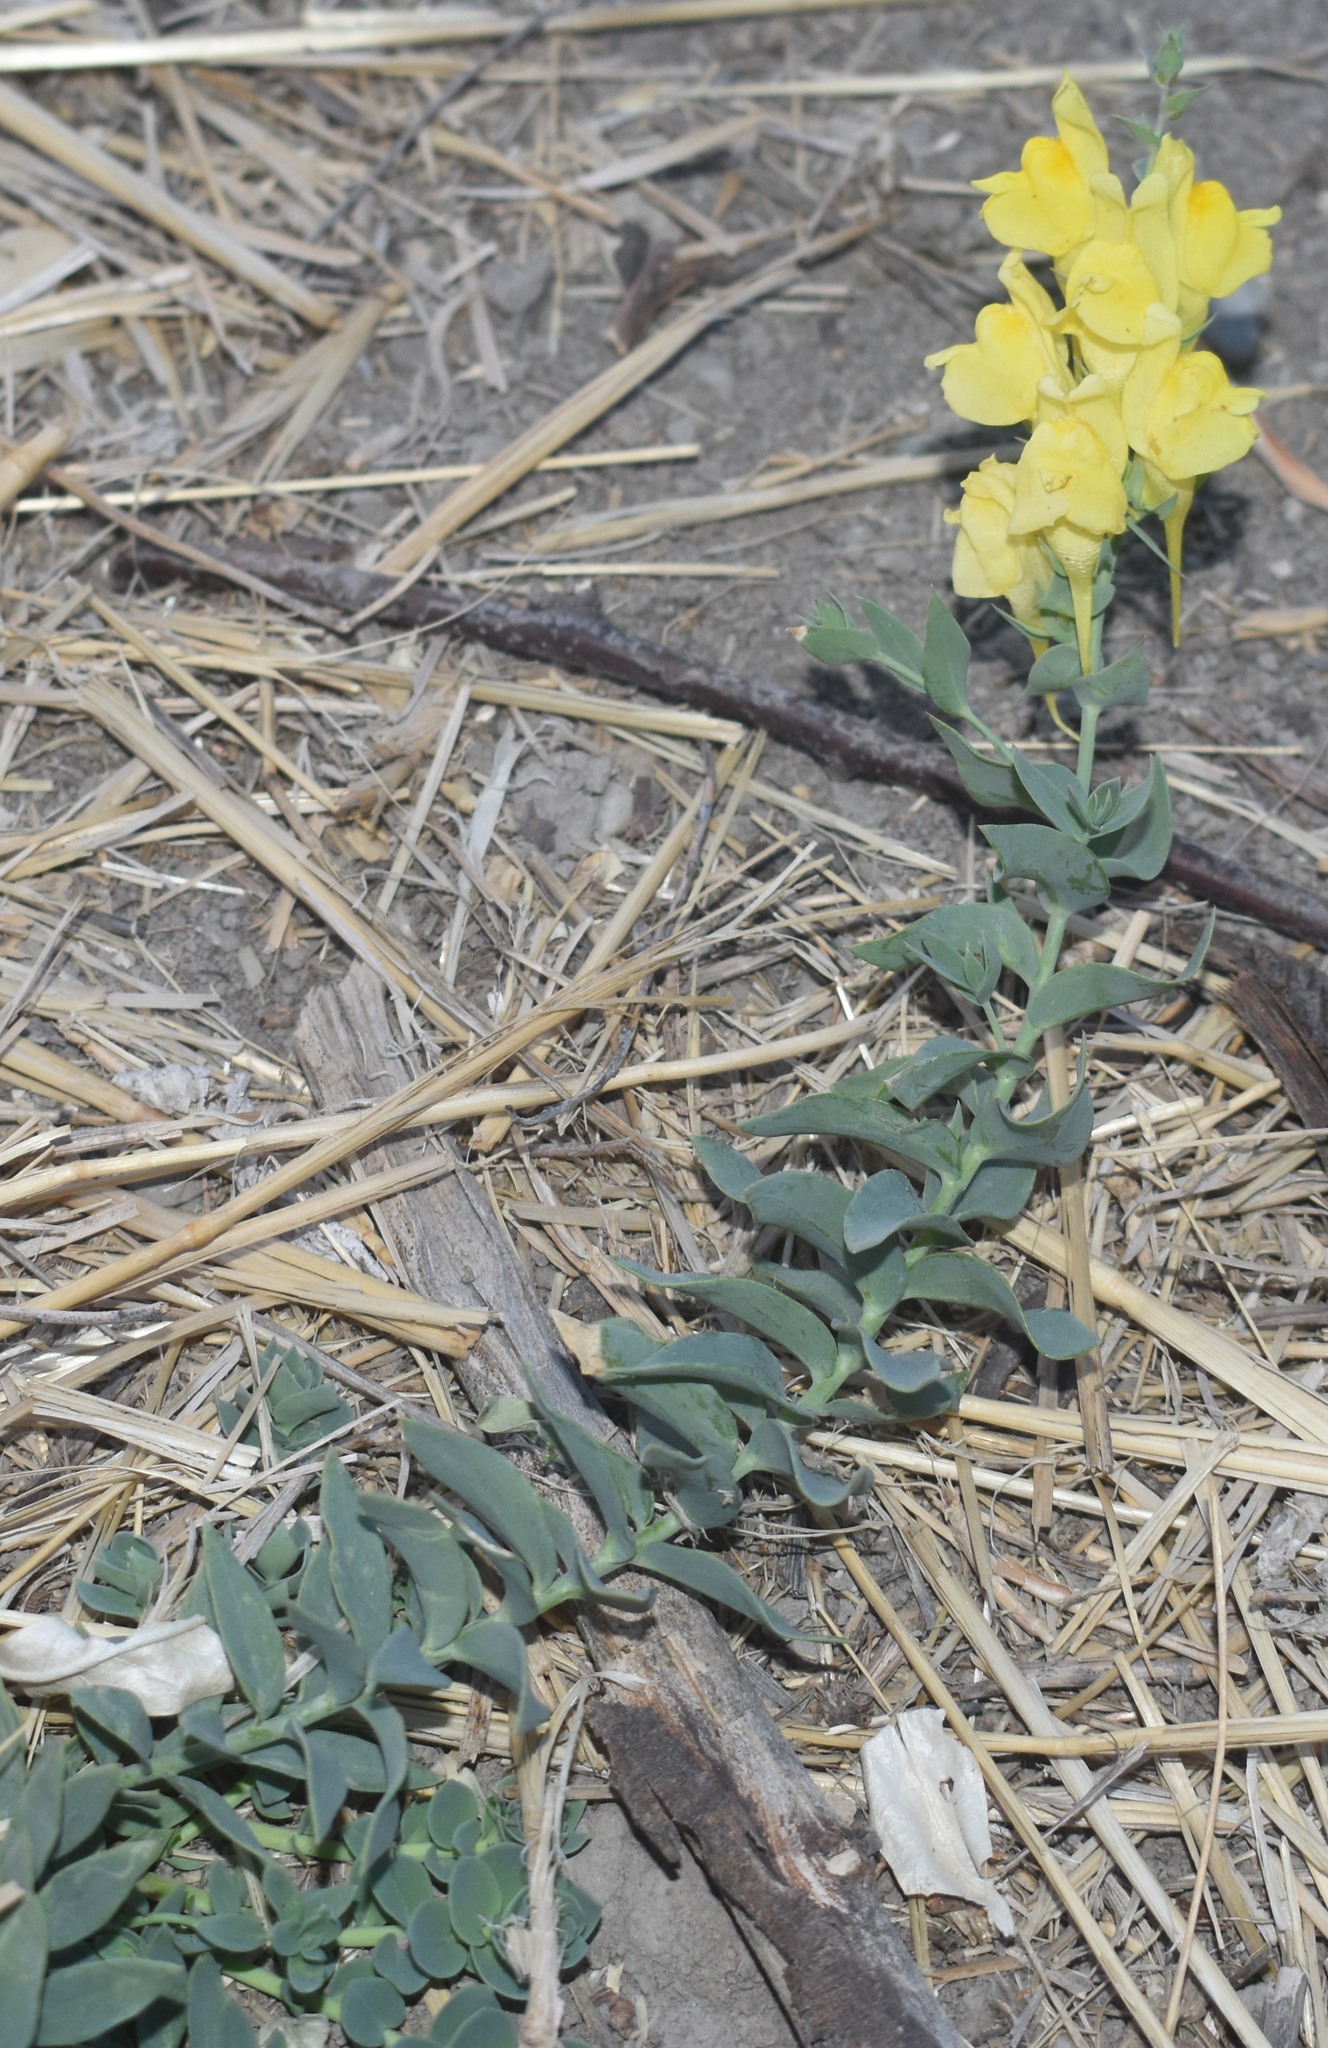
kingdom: Plantae
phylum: Tracheophyta
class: Magnoliopsida
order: Lamiales
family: Plantaginaceae
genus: Linaria
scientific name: Linaria dalmatica
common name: Dalmatian toadflax
